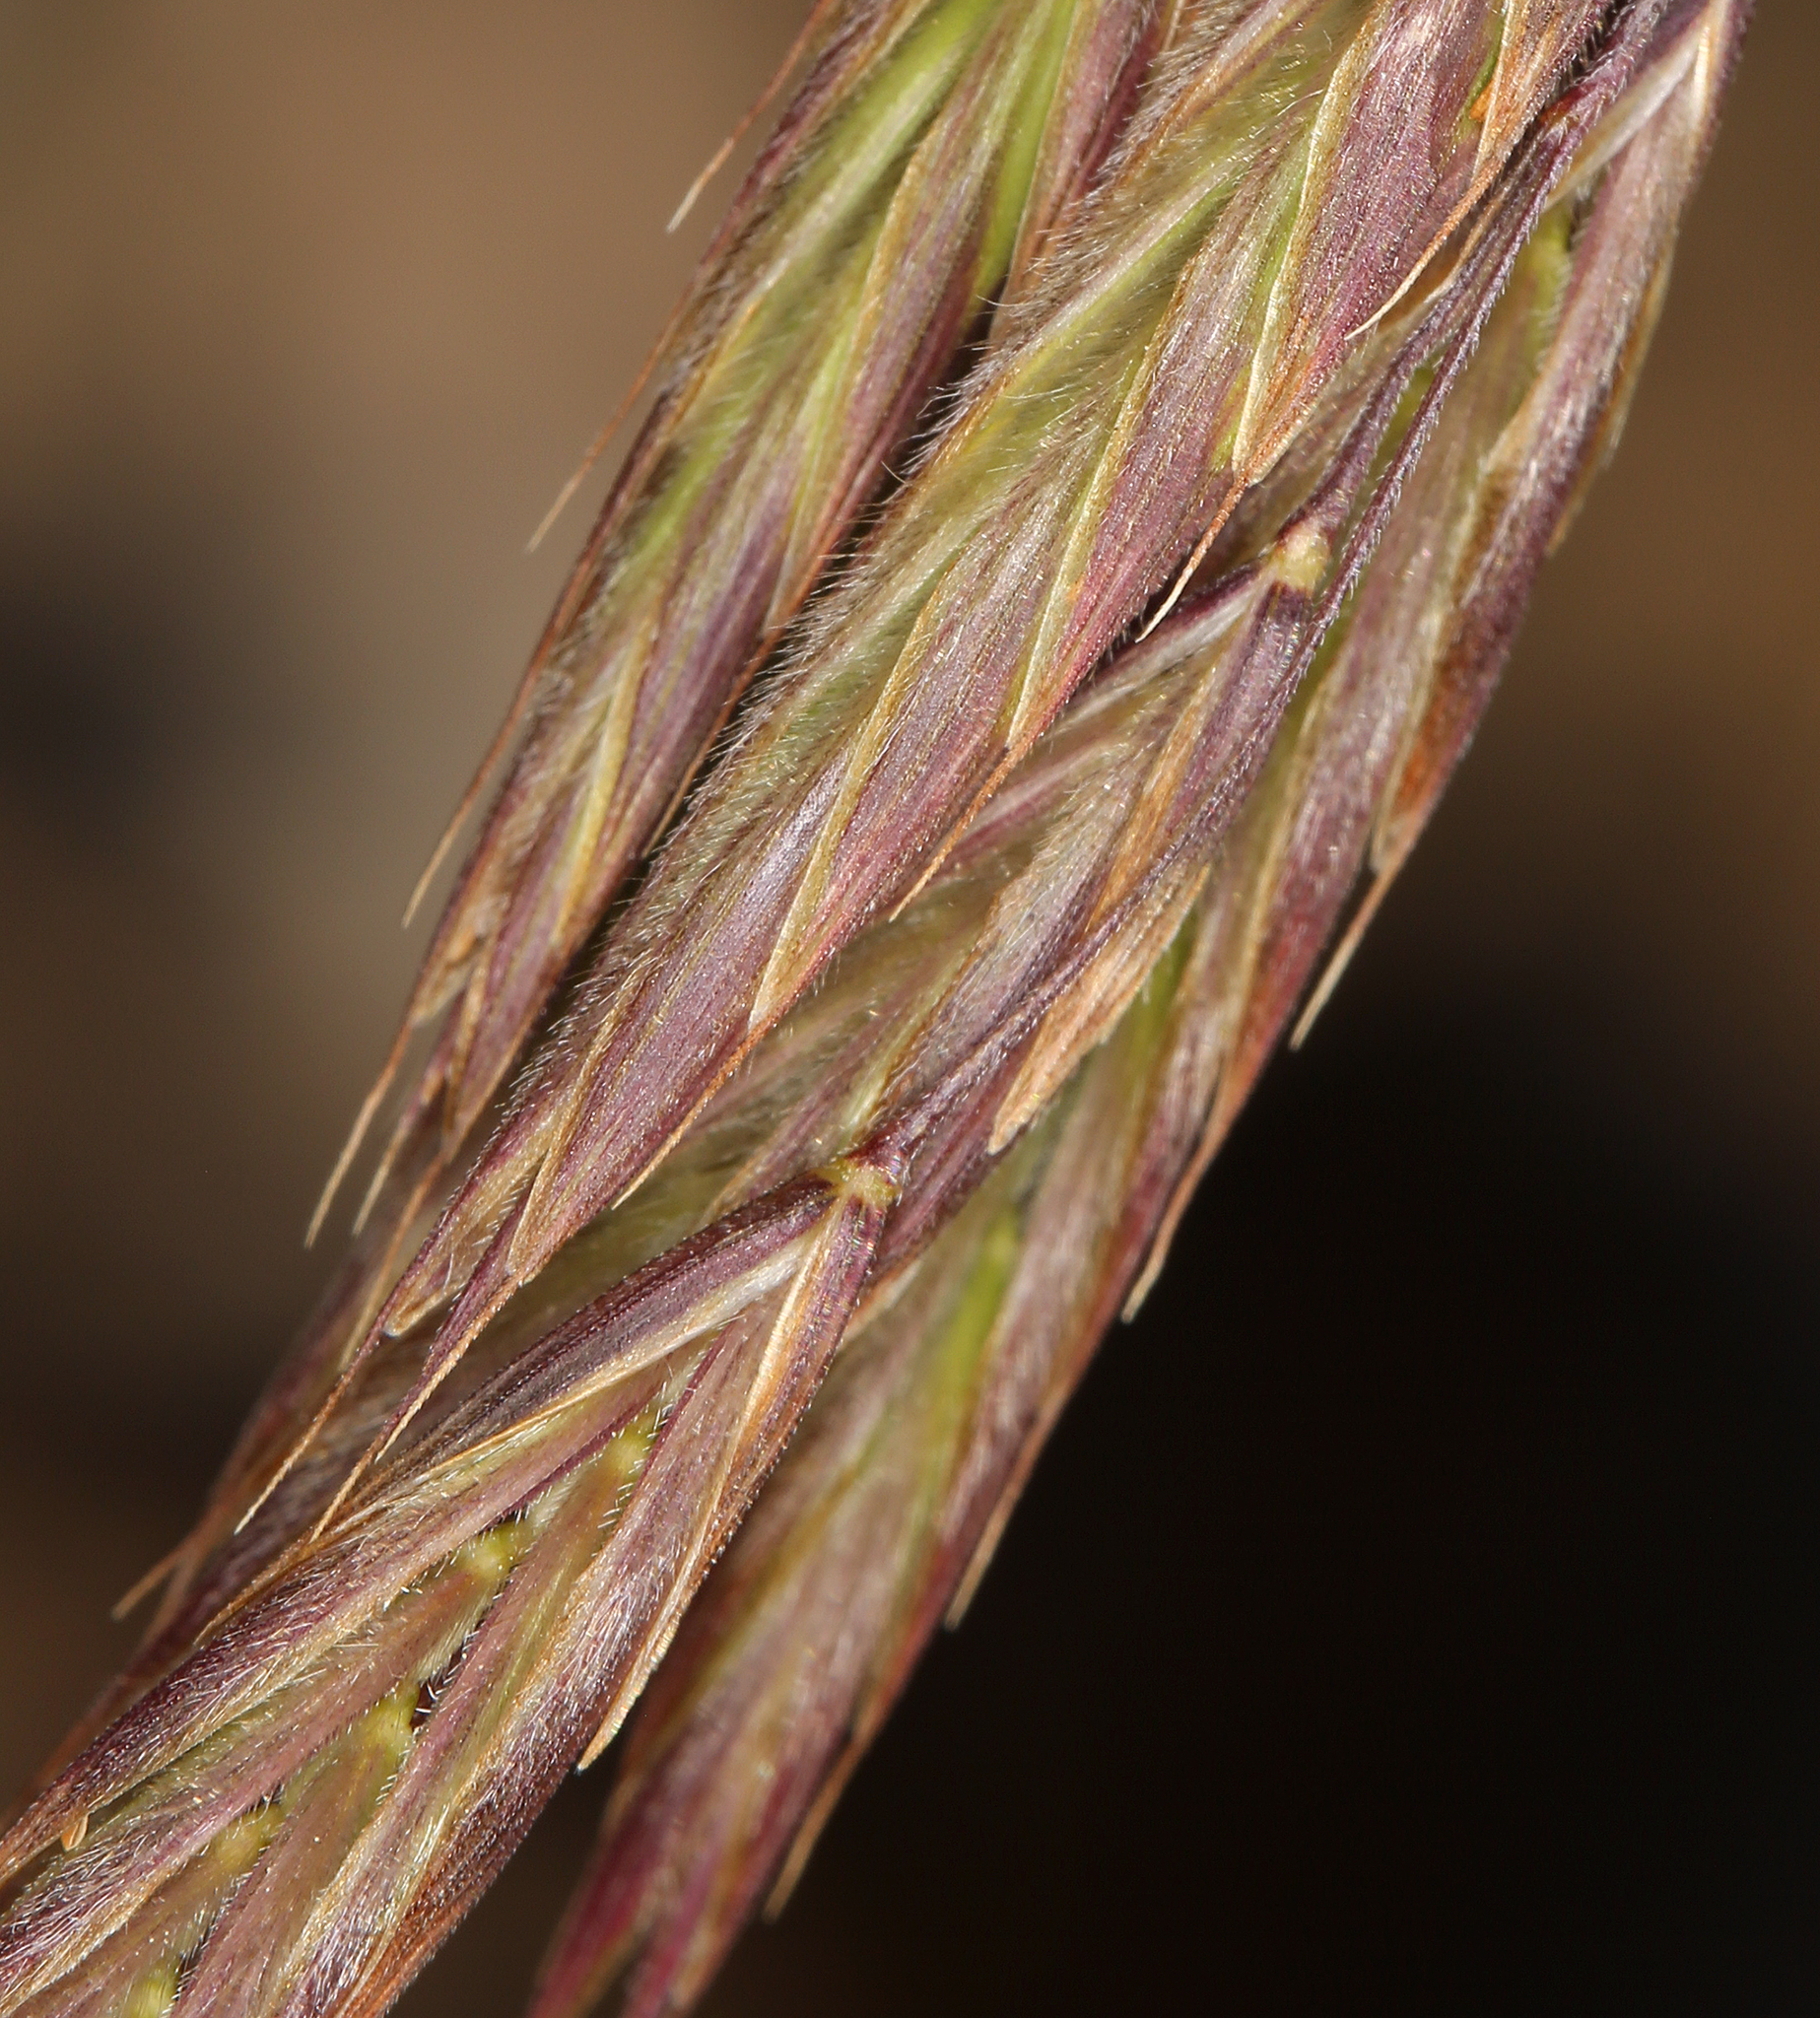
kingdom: Plantae
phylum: Tracheophyta
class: Liliopsida
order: Poales
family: Poaceae
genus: Bromus
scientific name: Bromus porteri
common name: Nodding brome
